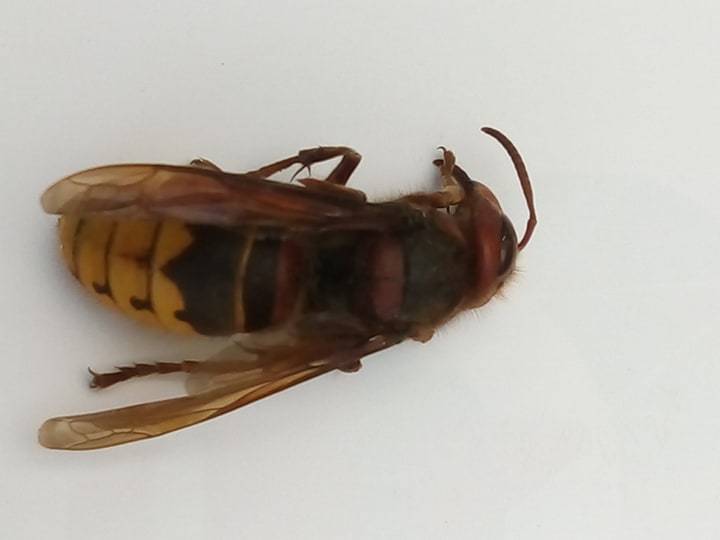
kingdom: Animalia
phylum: Arthropoda
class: Insecta
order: Hymenoptera
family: Vespidae
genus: Vespa
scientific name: Vespa crabro
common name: Hornet
